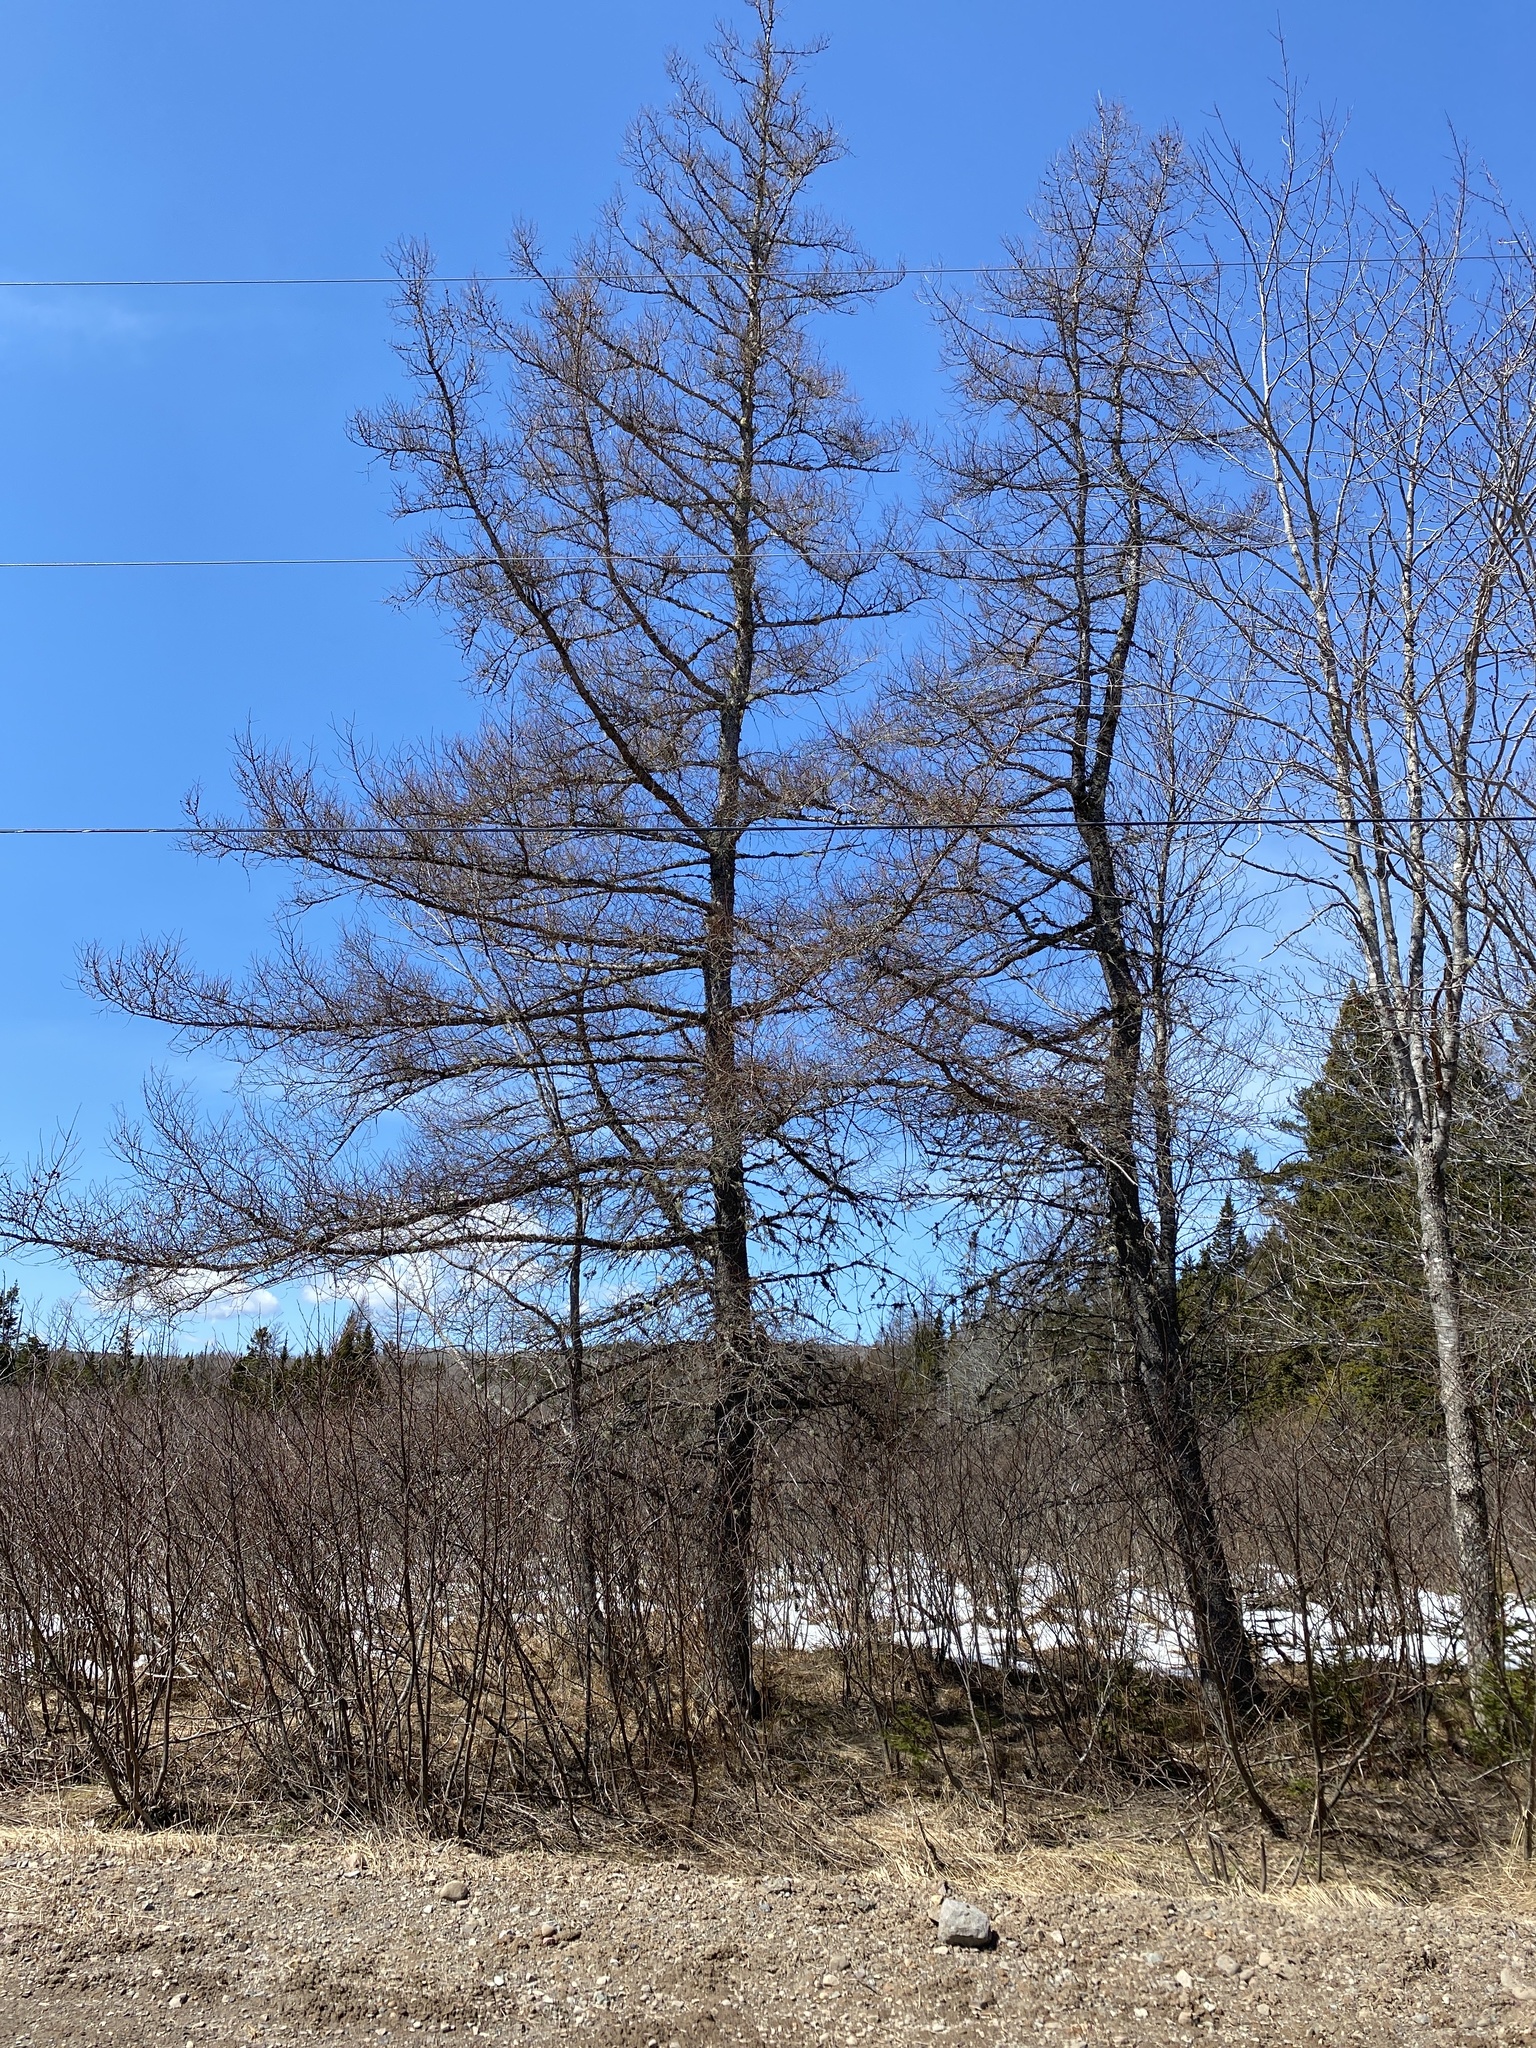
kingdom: Plantae
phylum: Tracheophyta
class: Pinopsida
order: Pinales
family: Pinaceae
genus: Larix
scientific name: Larix laricina
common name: American larch
